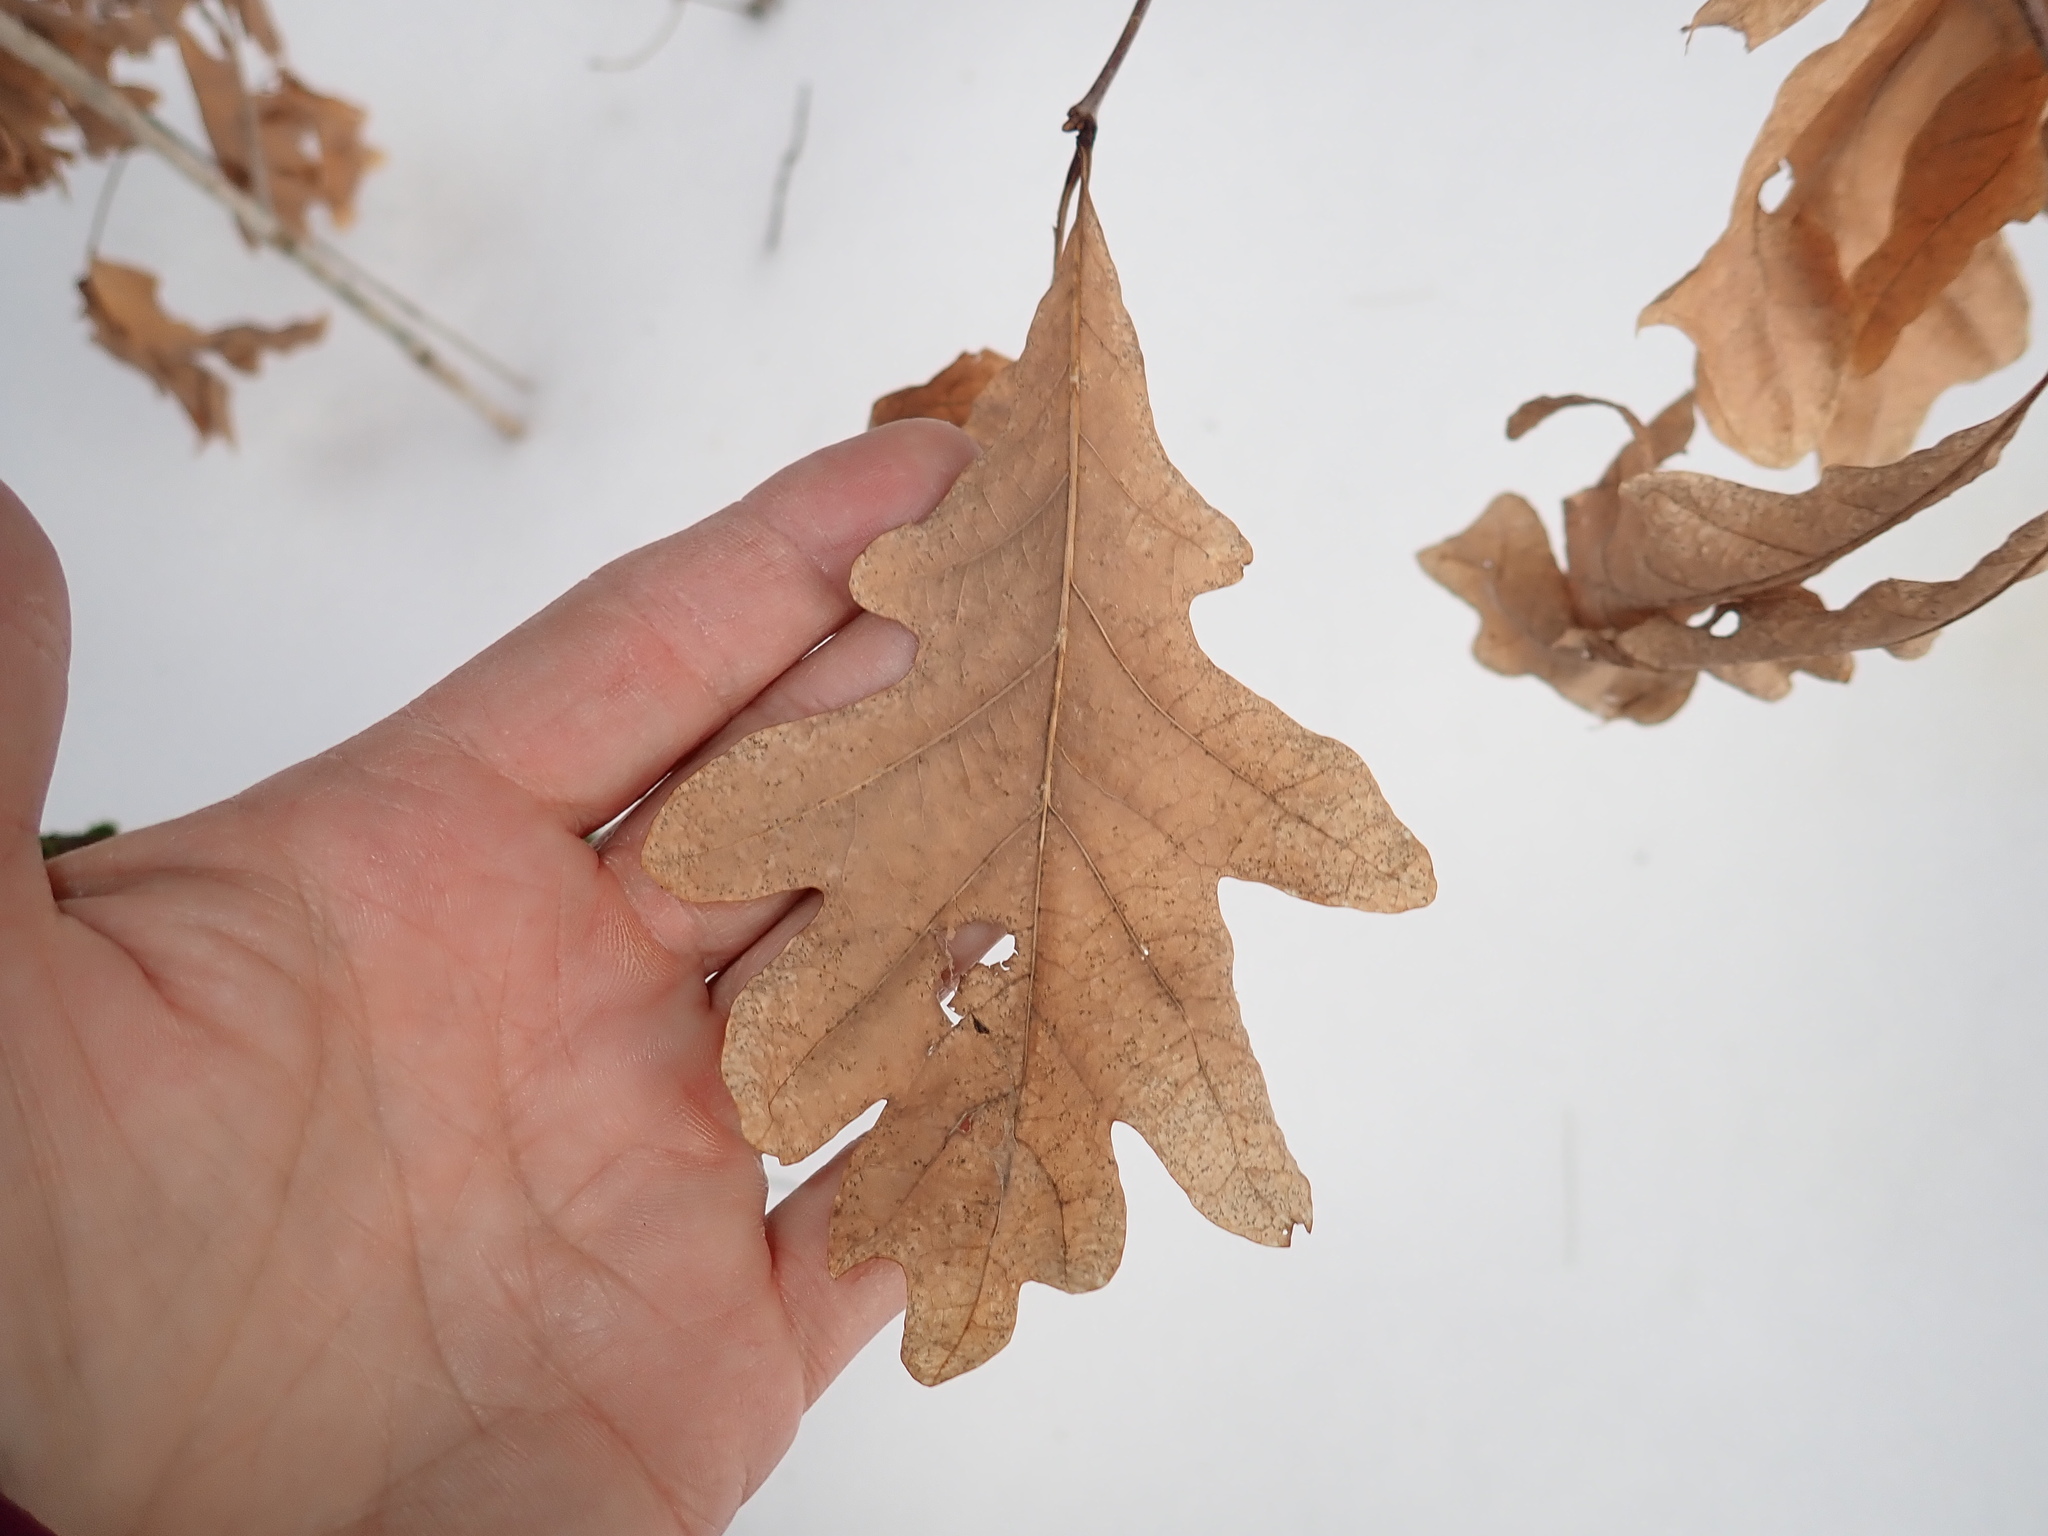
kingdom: Plantae
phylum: Tracheophyta
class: Magnoliopsida
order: Fagales
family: Fagaceae
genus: Quercus
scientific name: Quercus alba
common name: White oak
